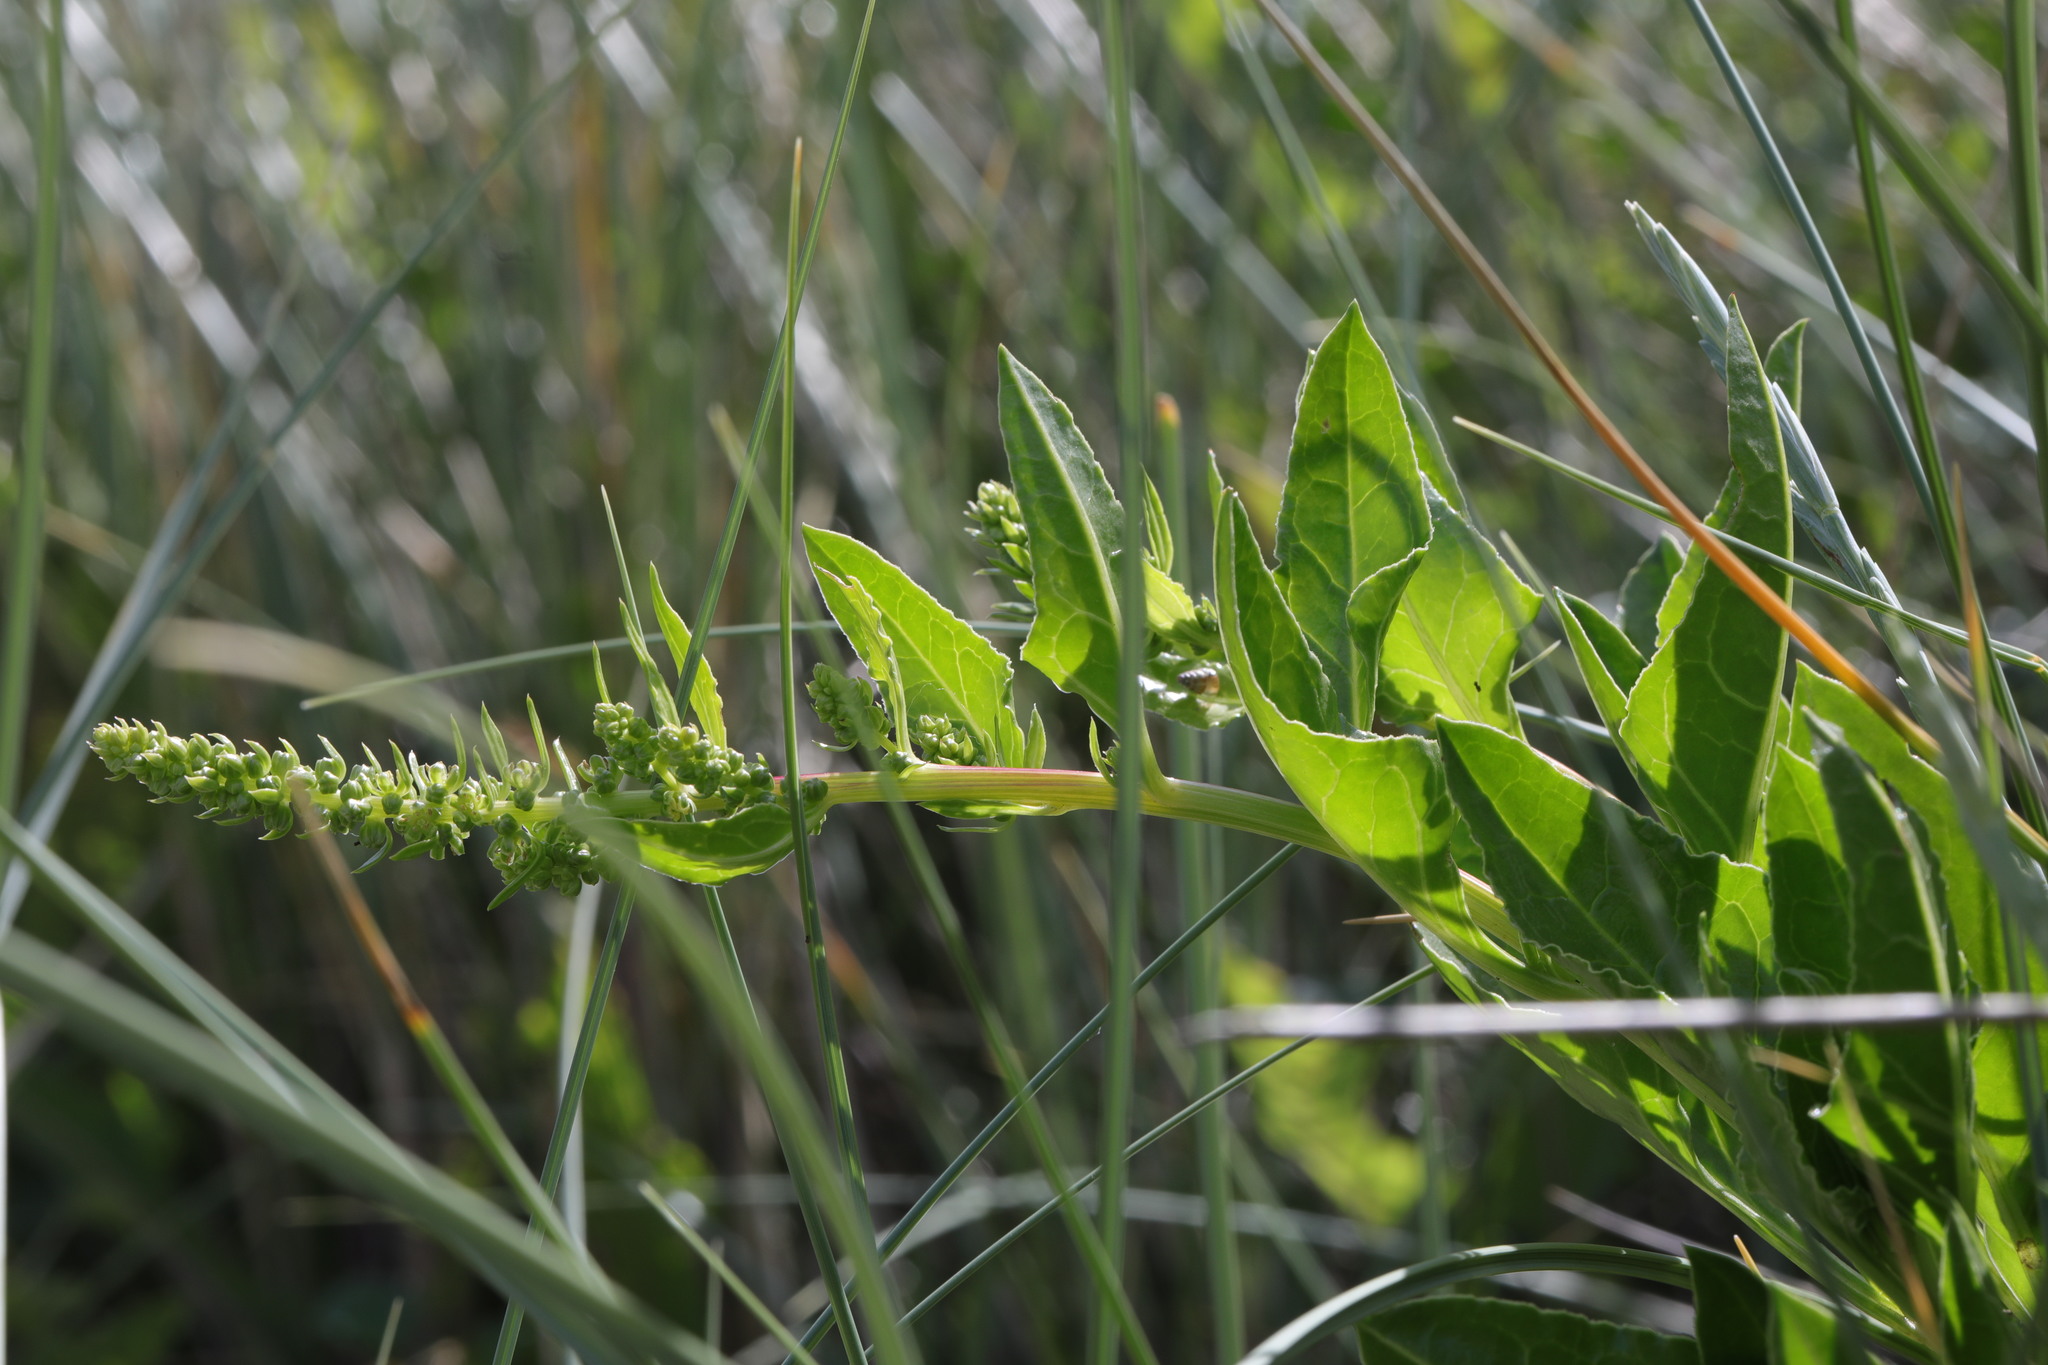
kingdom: Plantae
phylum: Tracheophyta
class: Magnoliopsida
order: Caryophyllales
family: Amaranthaceae
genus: Beta
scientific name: Beta vulgaris
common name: Beet
